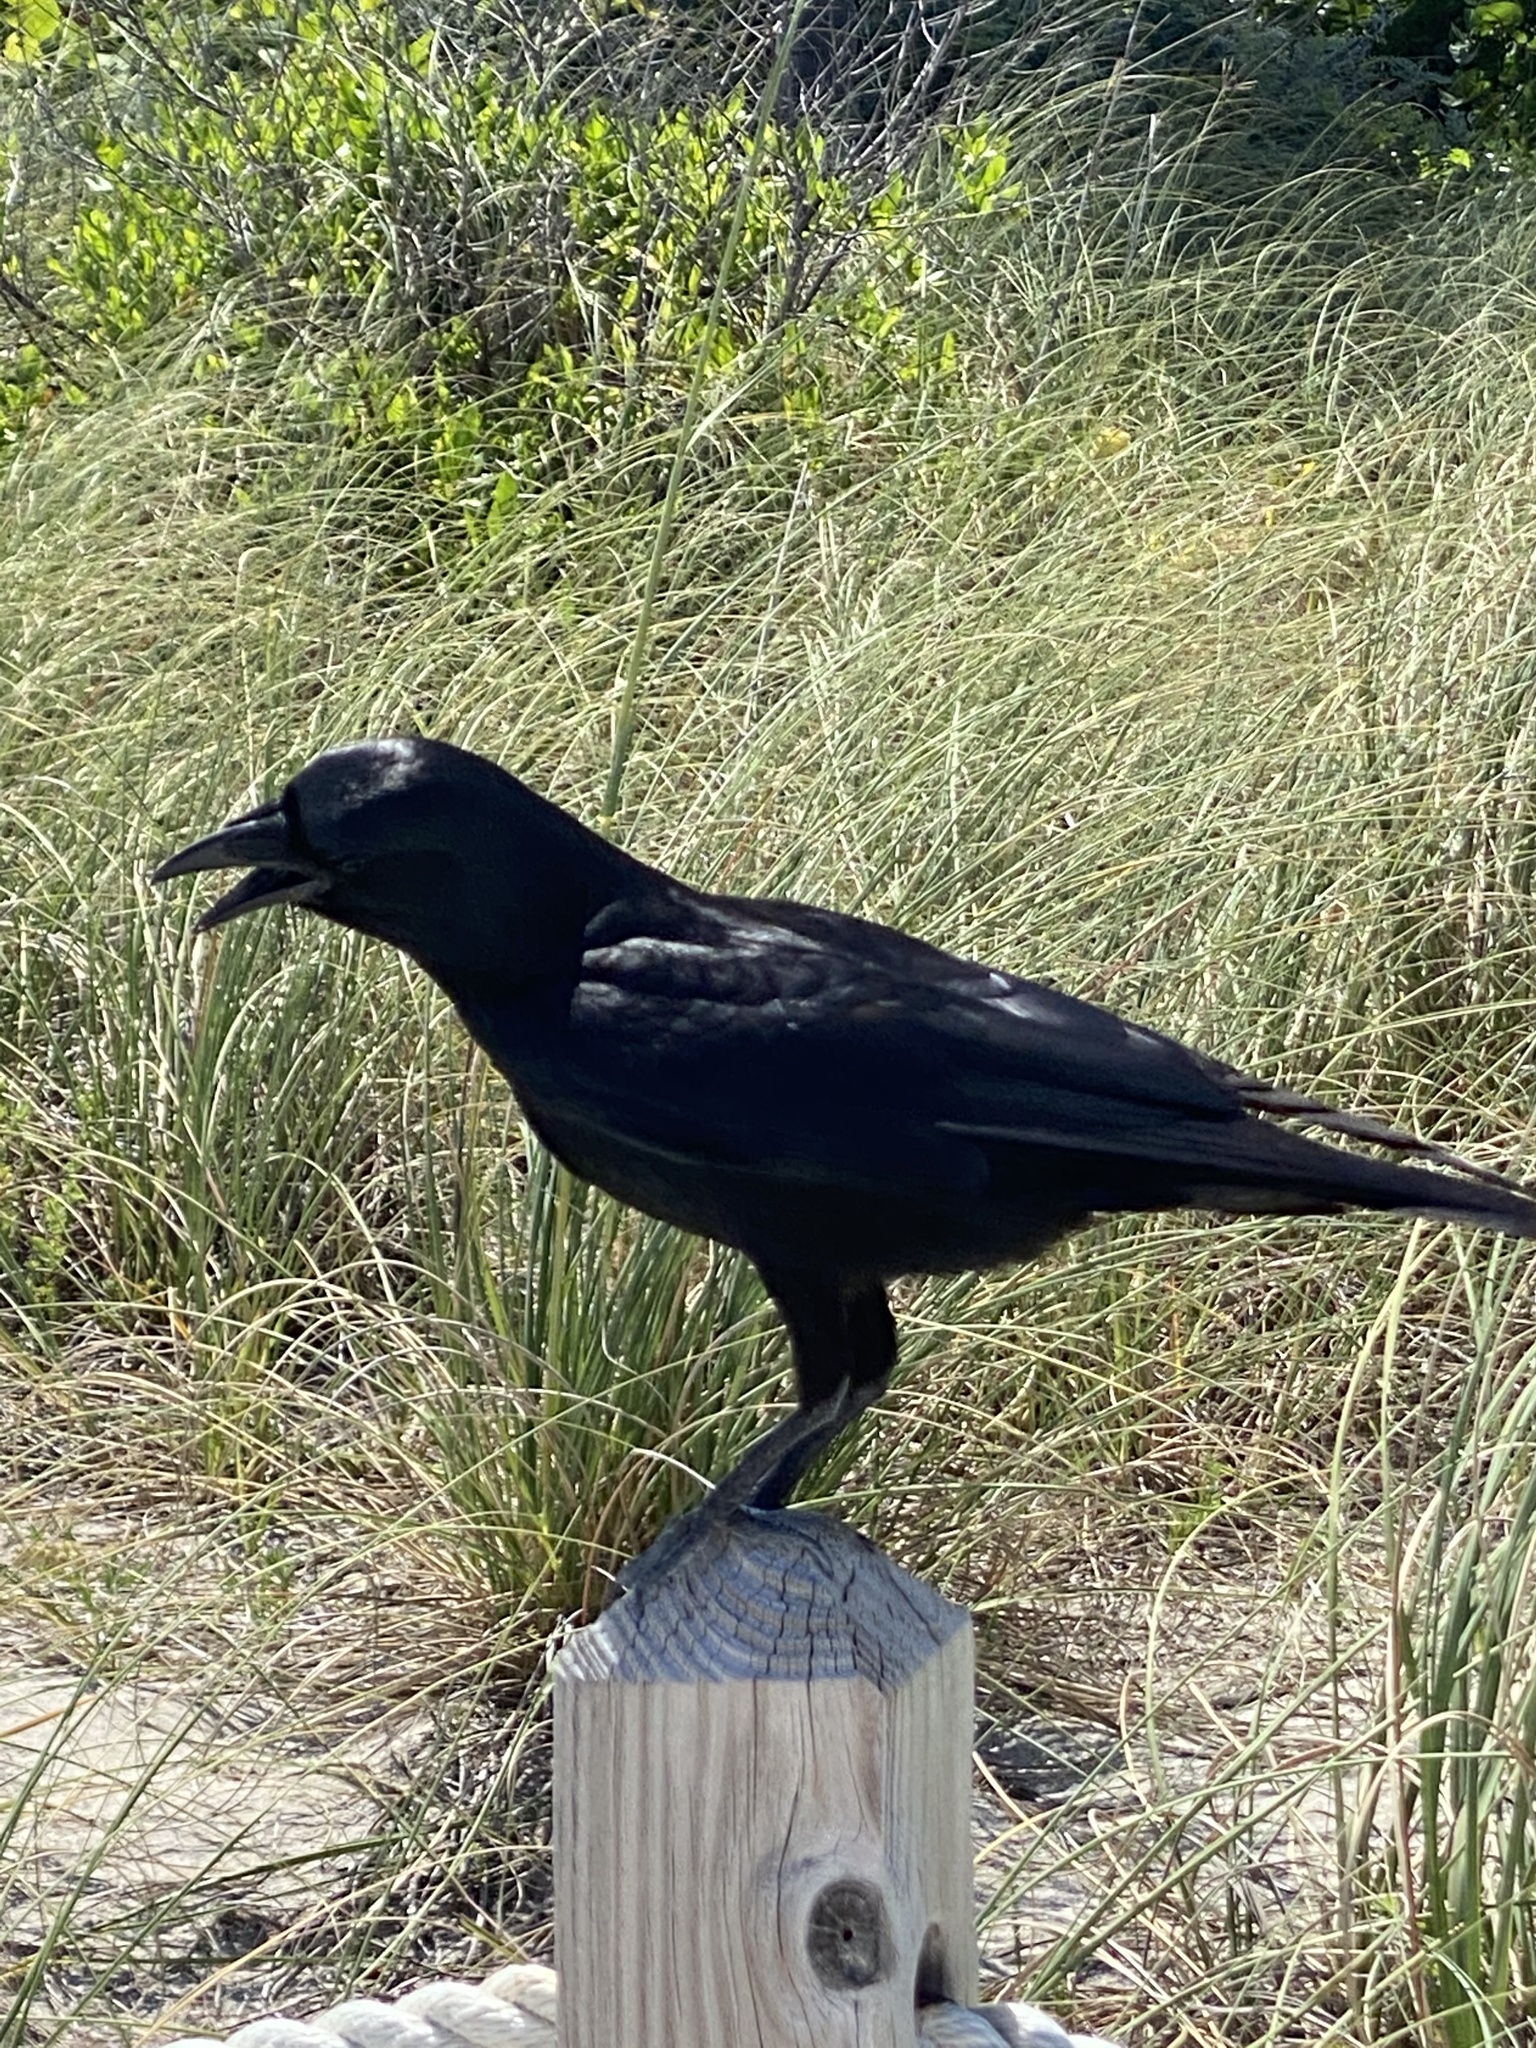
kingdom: Animalia
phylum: Chordata
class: Aves
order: Passeriformes
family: Corvidae
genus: Corvus
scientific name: Corvus ossifragus
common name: Fish crow
